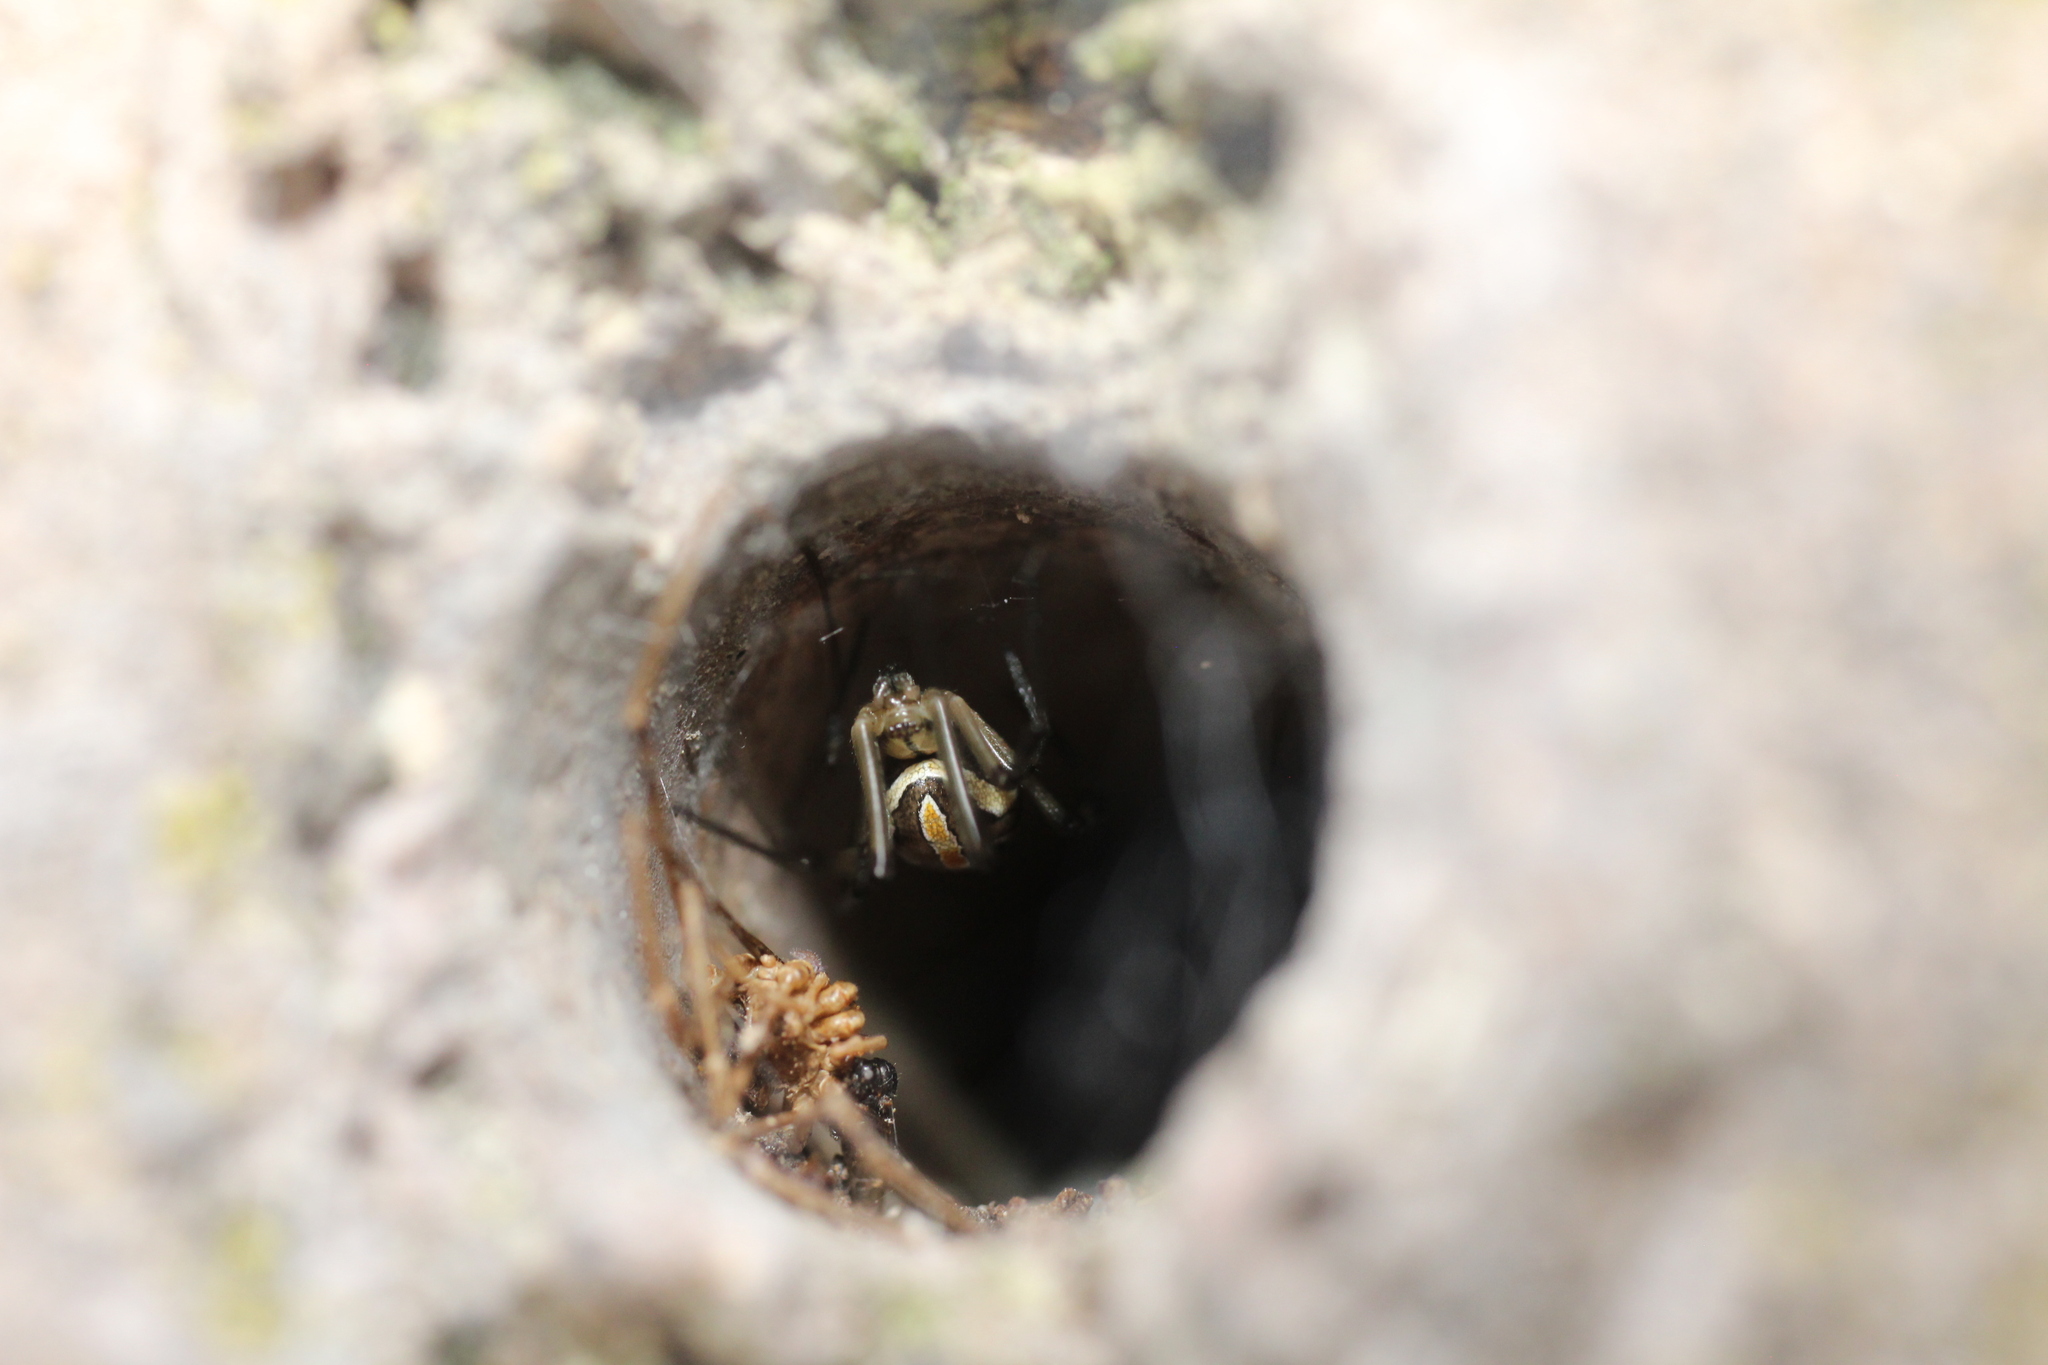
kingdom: Animalia
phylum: Arthropoda
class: Arachnida
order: Araneae
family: Theridiidae
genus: Latrodectus
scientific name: Latrodectus hesperus
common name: Western black widow
